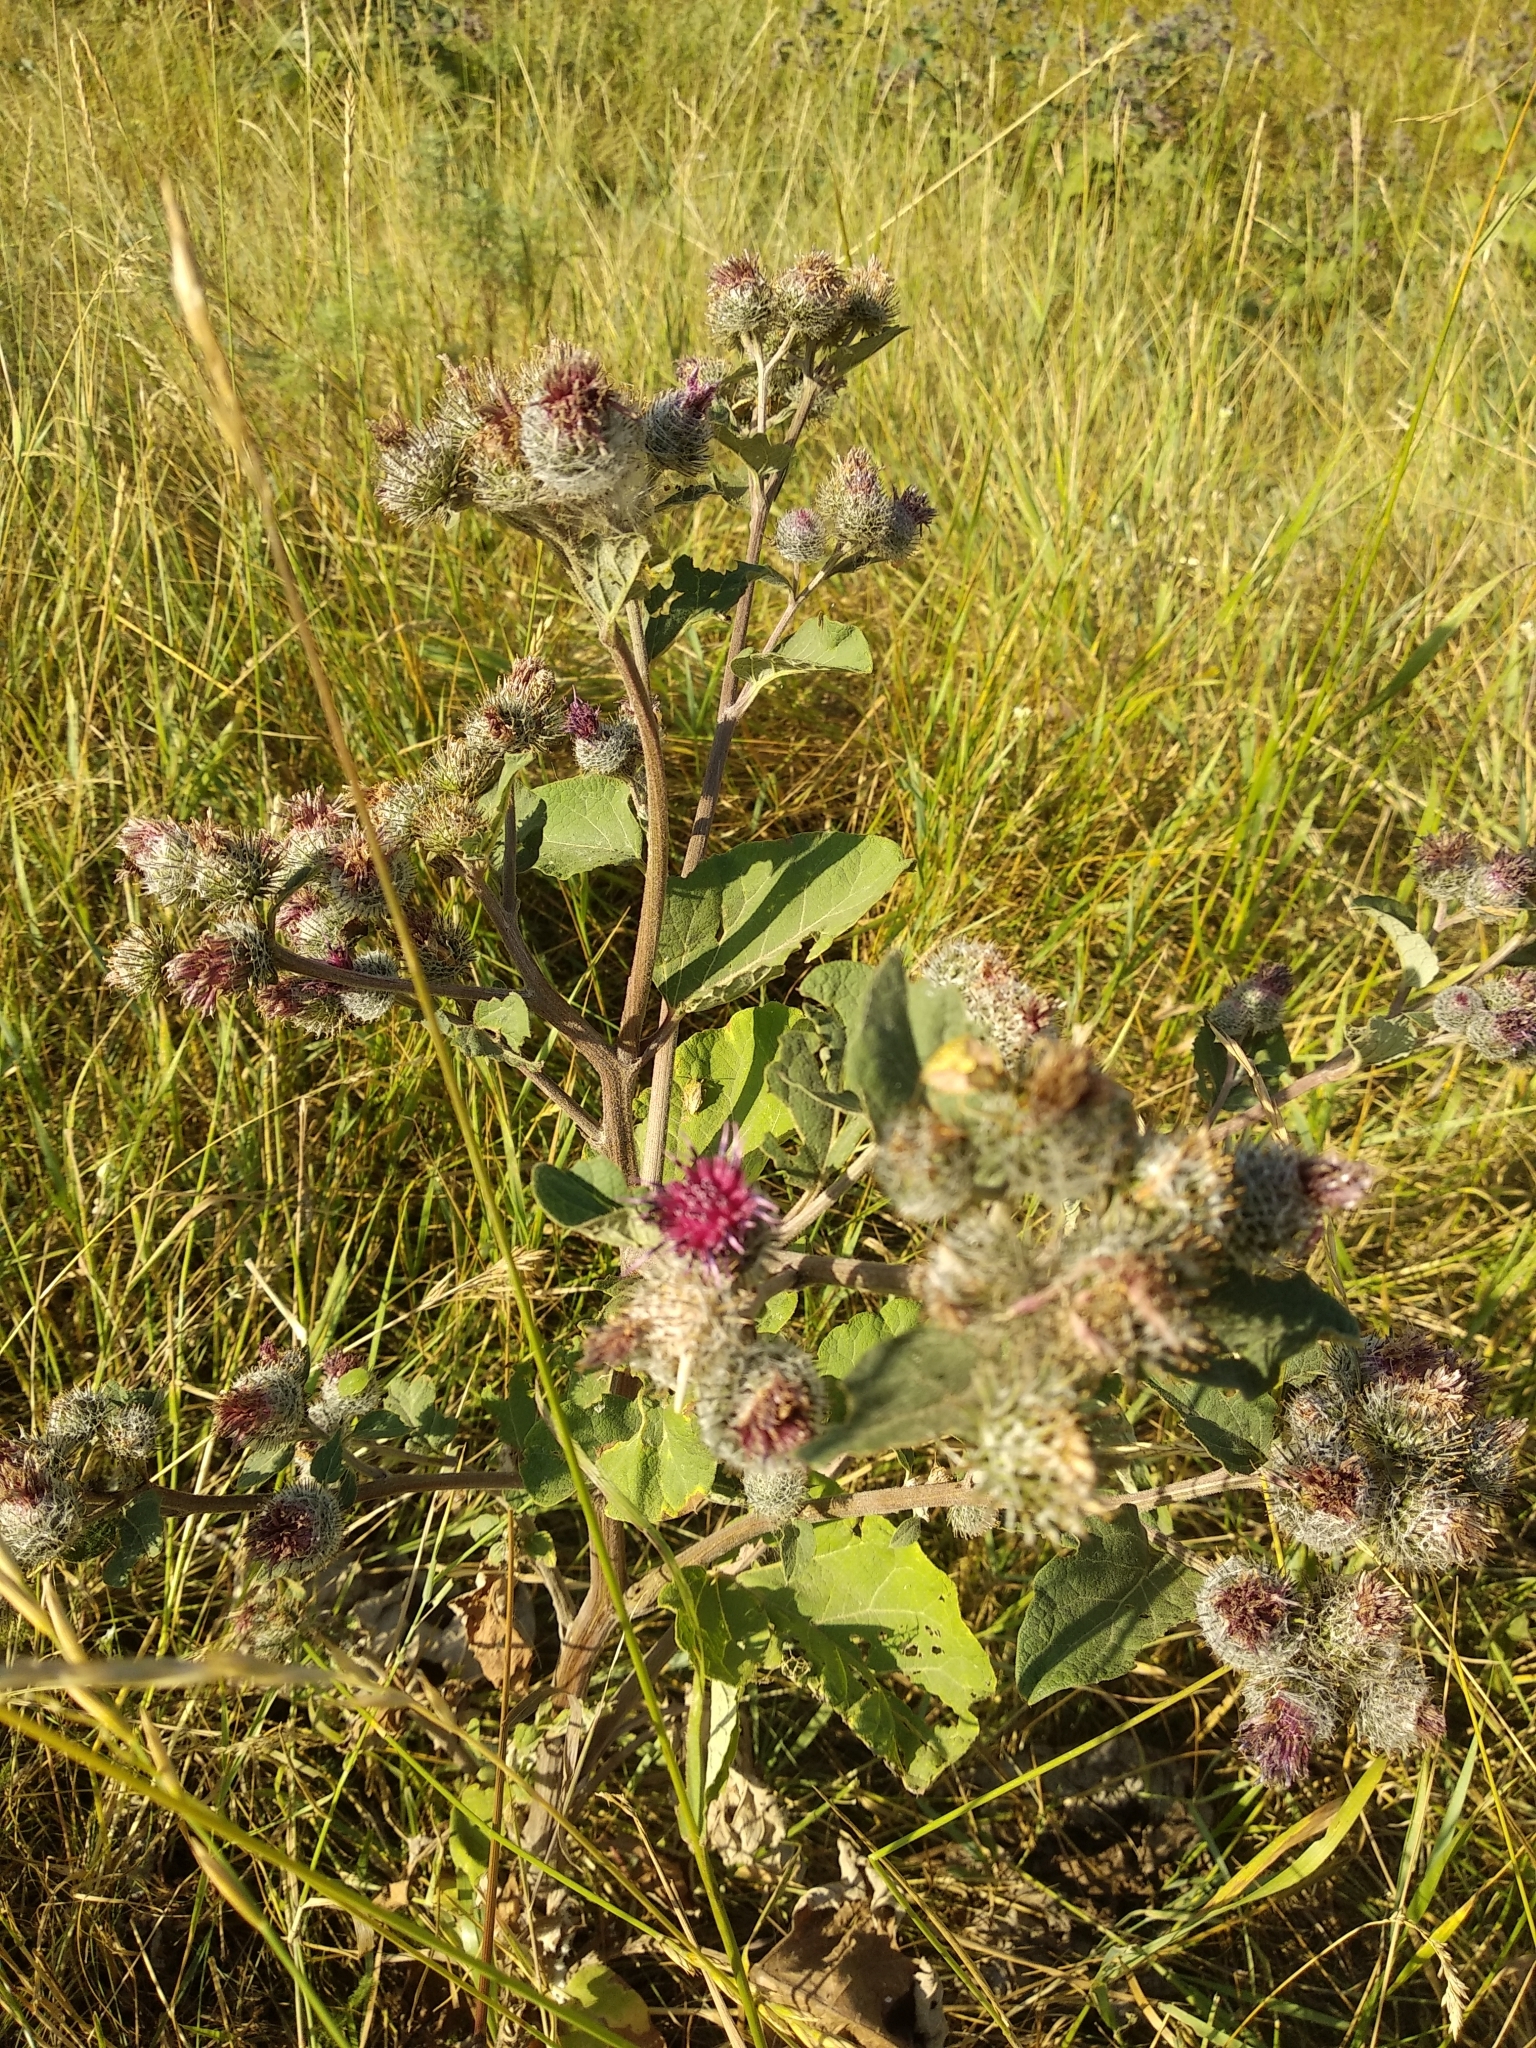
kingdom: Plantae
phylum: Tracheophyta
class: Magnoliopsida
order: Asterales
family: Asteraceae
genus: Arctium
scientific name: Arctium tomentosum
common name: Woolly burdock
